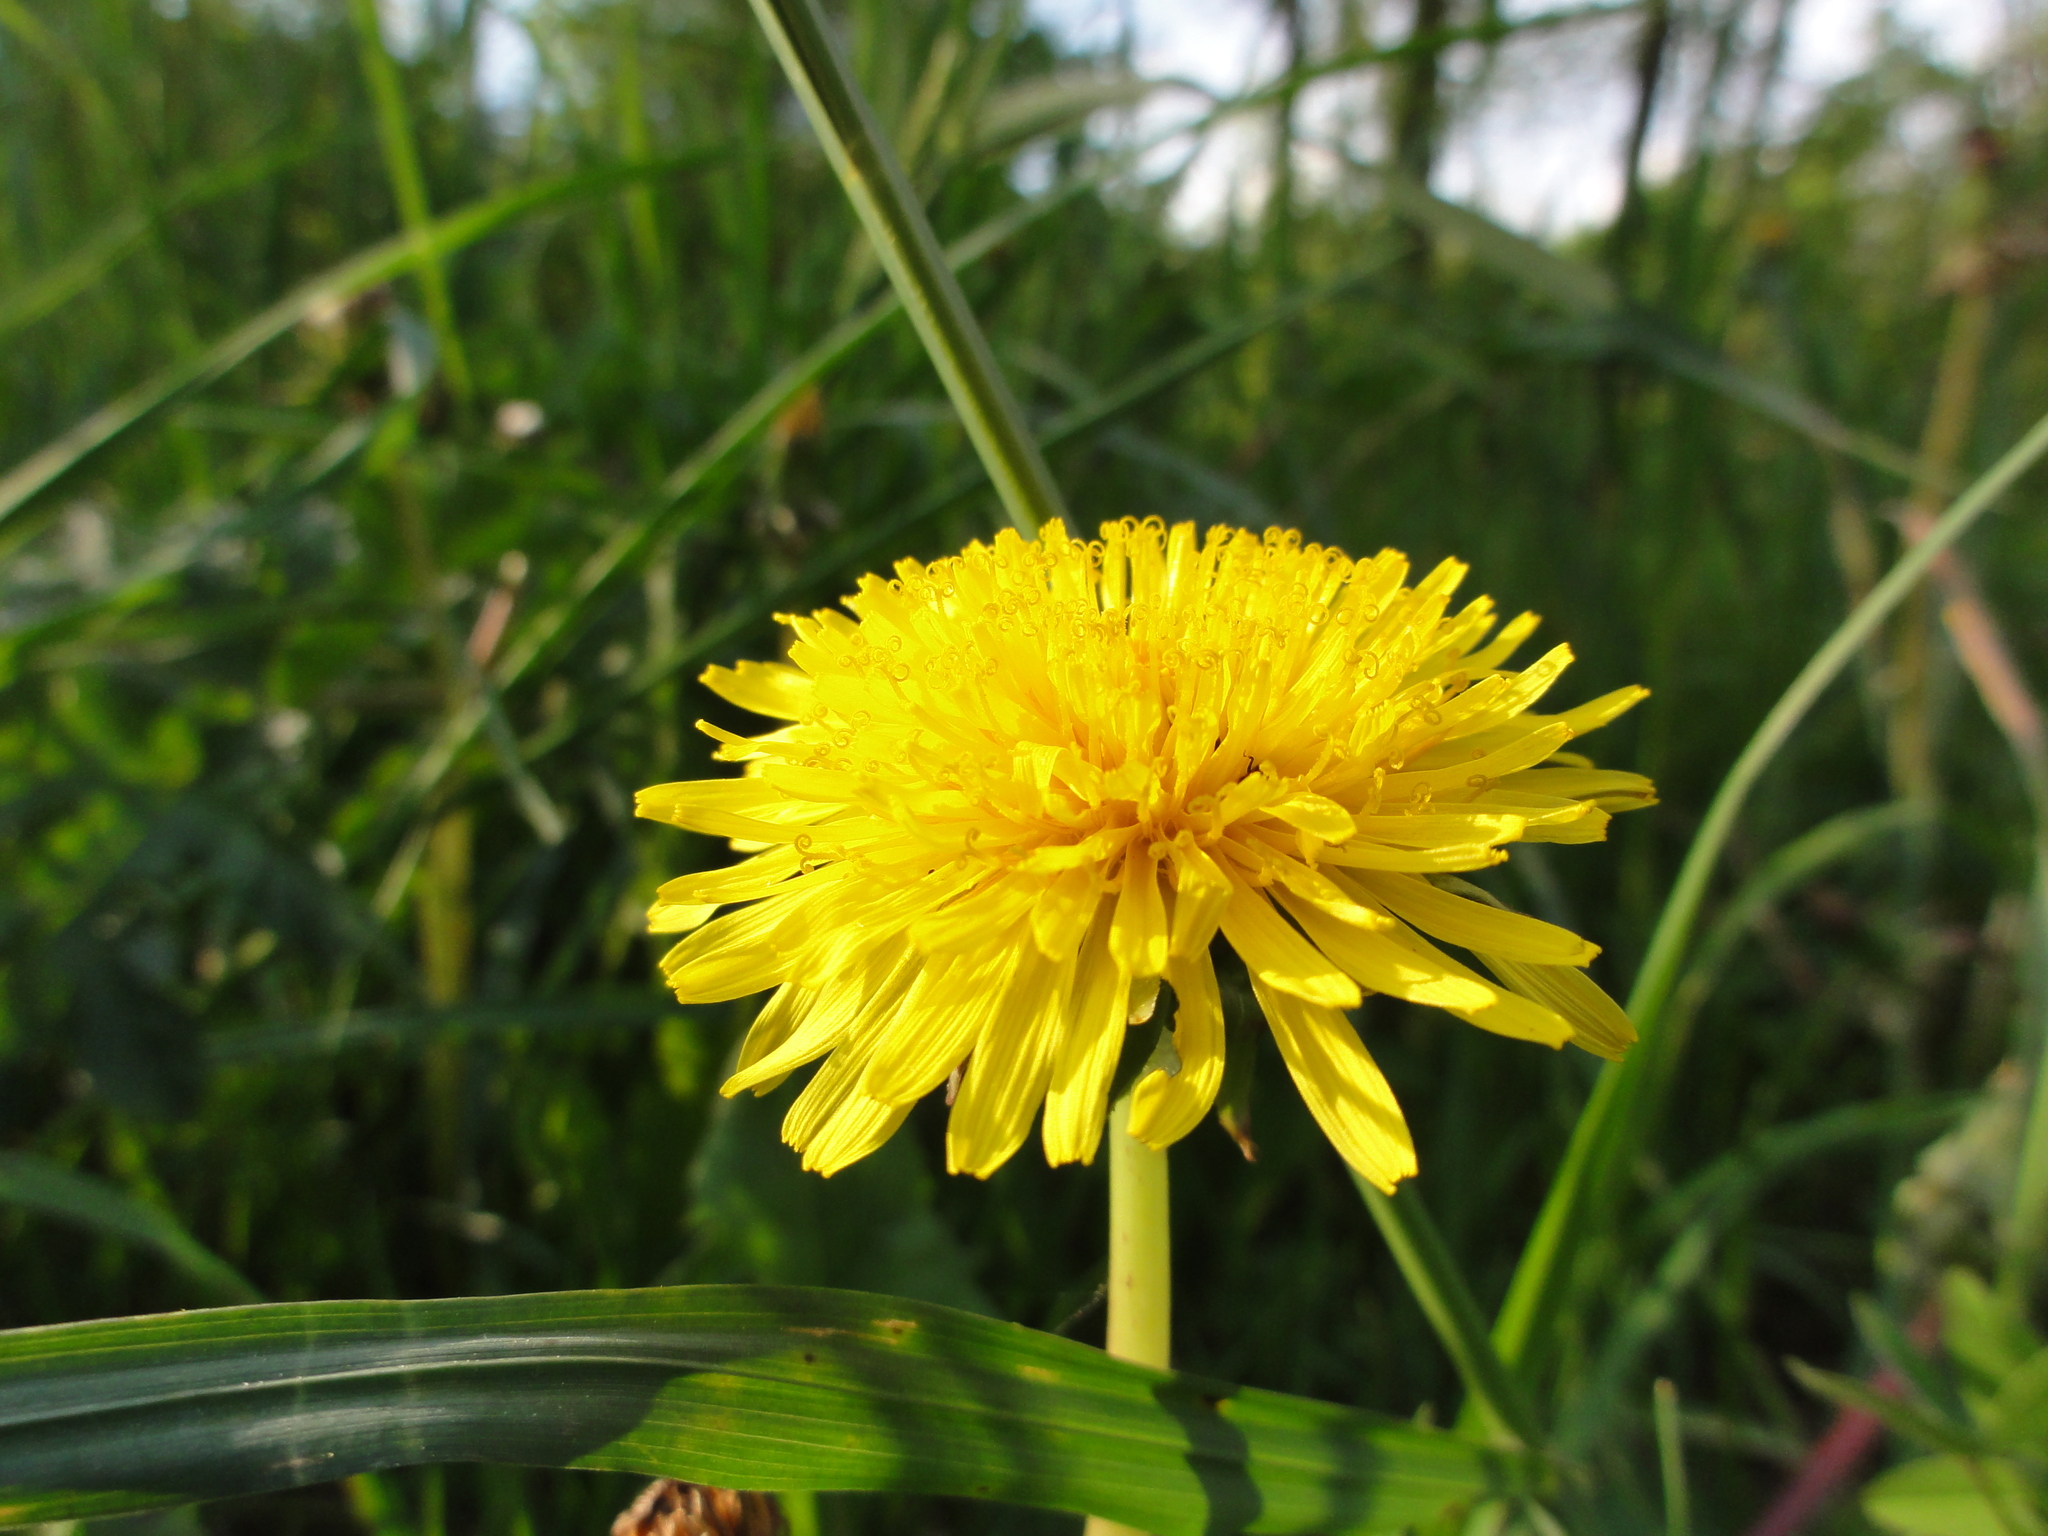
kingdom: Plantae
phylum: Tracheophyta
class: Magnoliopsida
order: Asterales
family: Asteraceae
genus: Taraxacum
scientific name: Taraxacum officinale
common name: Common dandelion
